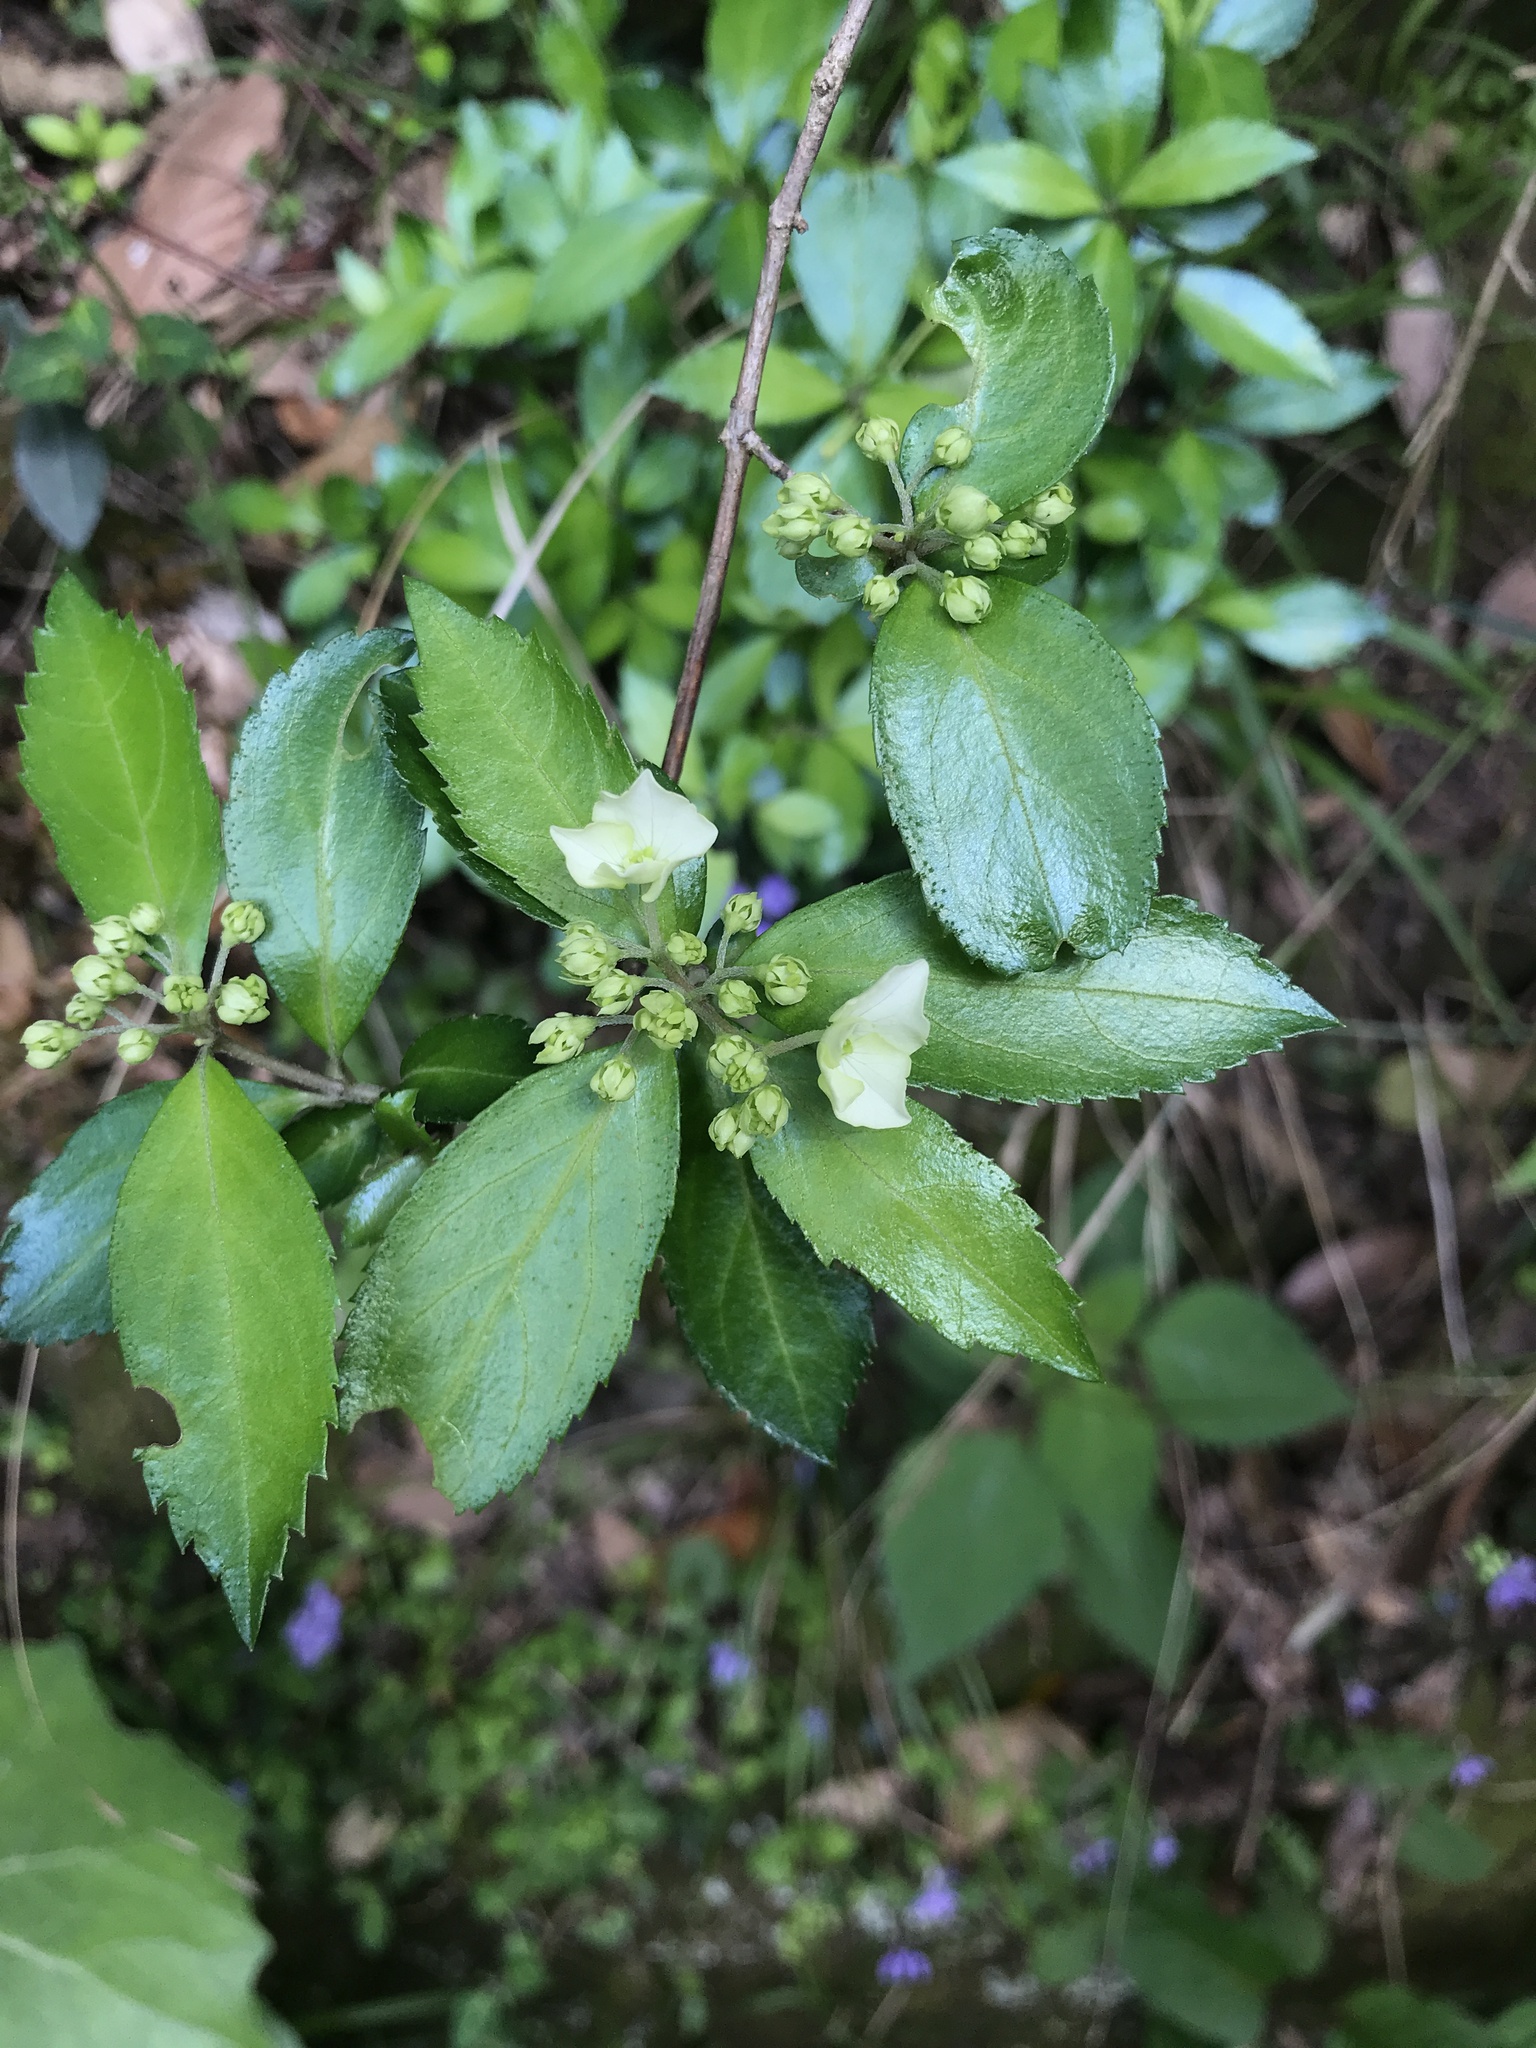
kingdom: Plantae
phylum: Tracheophyta
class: Magnoliopsida
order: Cornales
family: Hydrangeaceae
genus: Hydrangea
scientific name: Hydrangea luteovenosa
